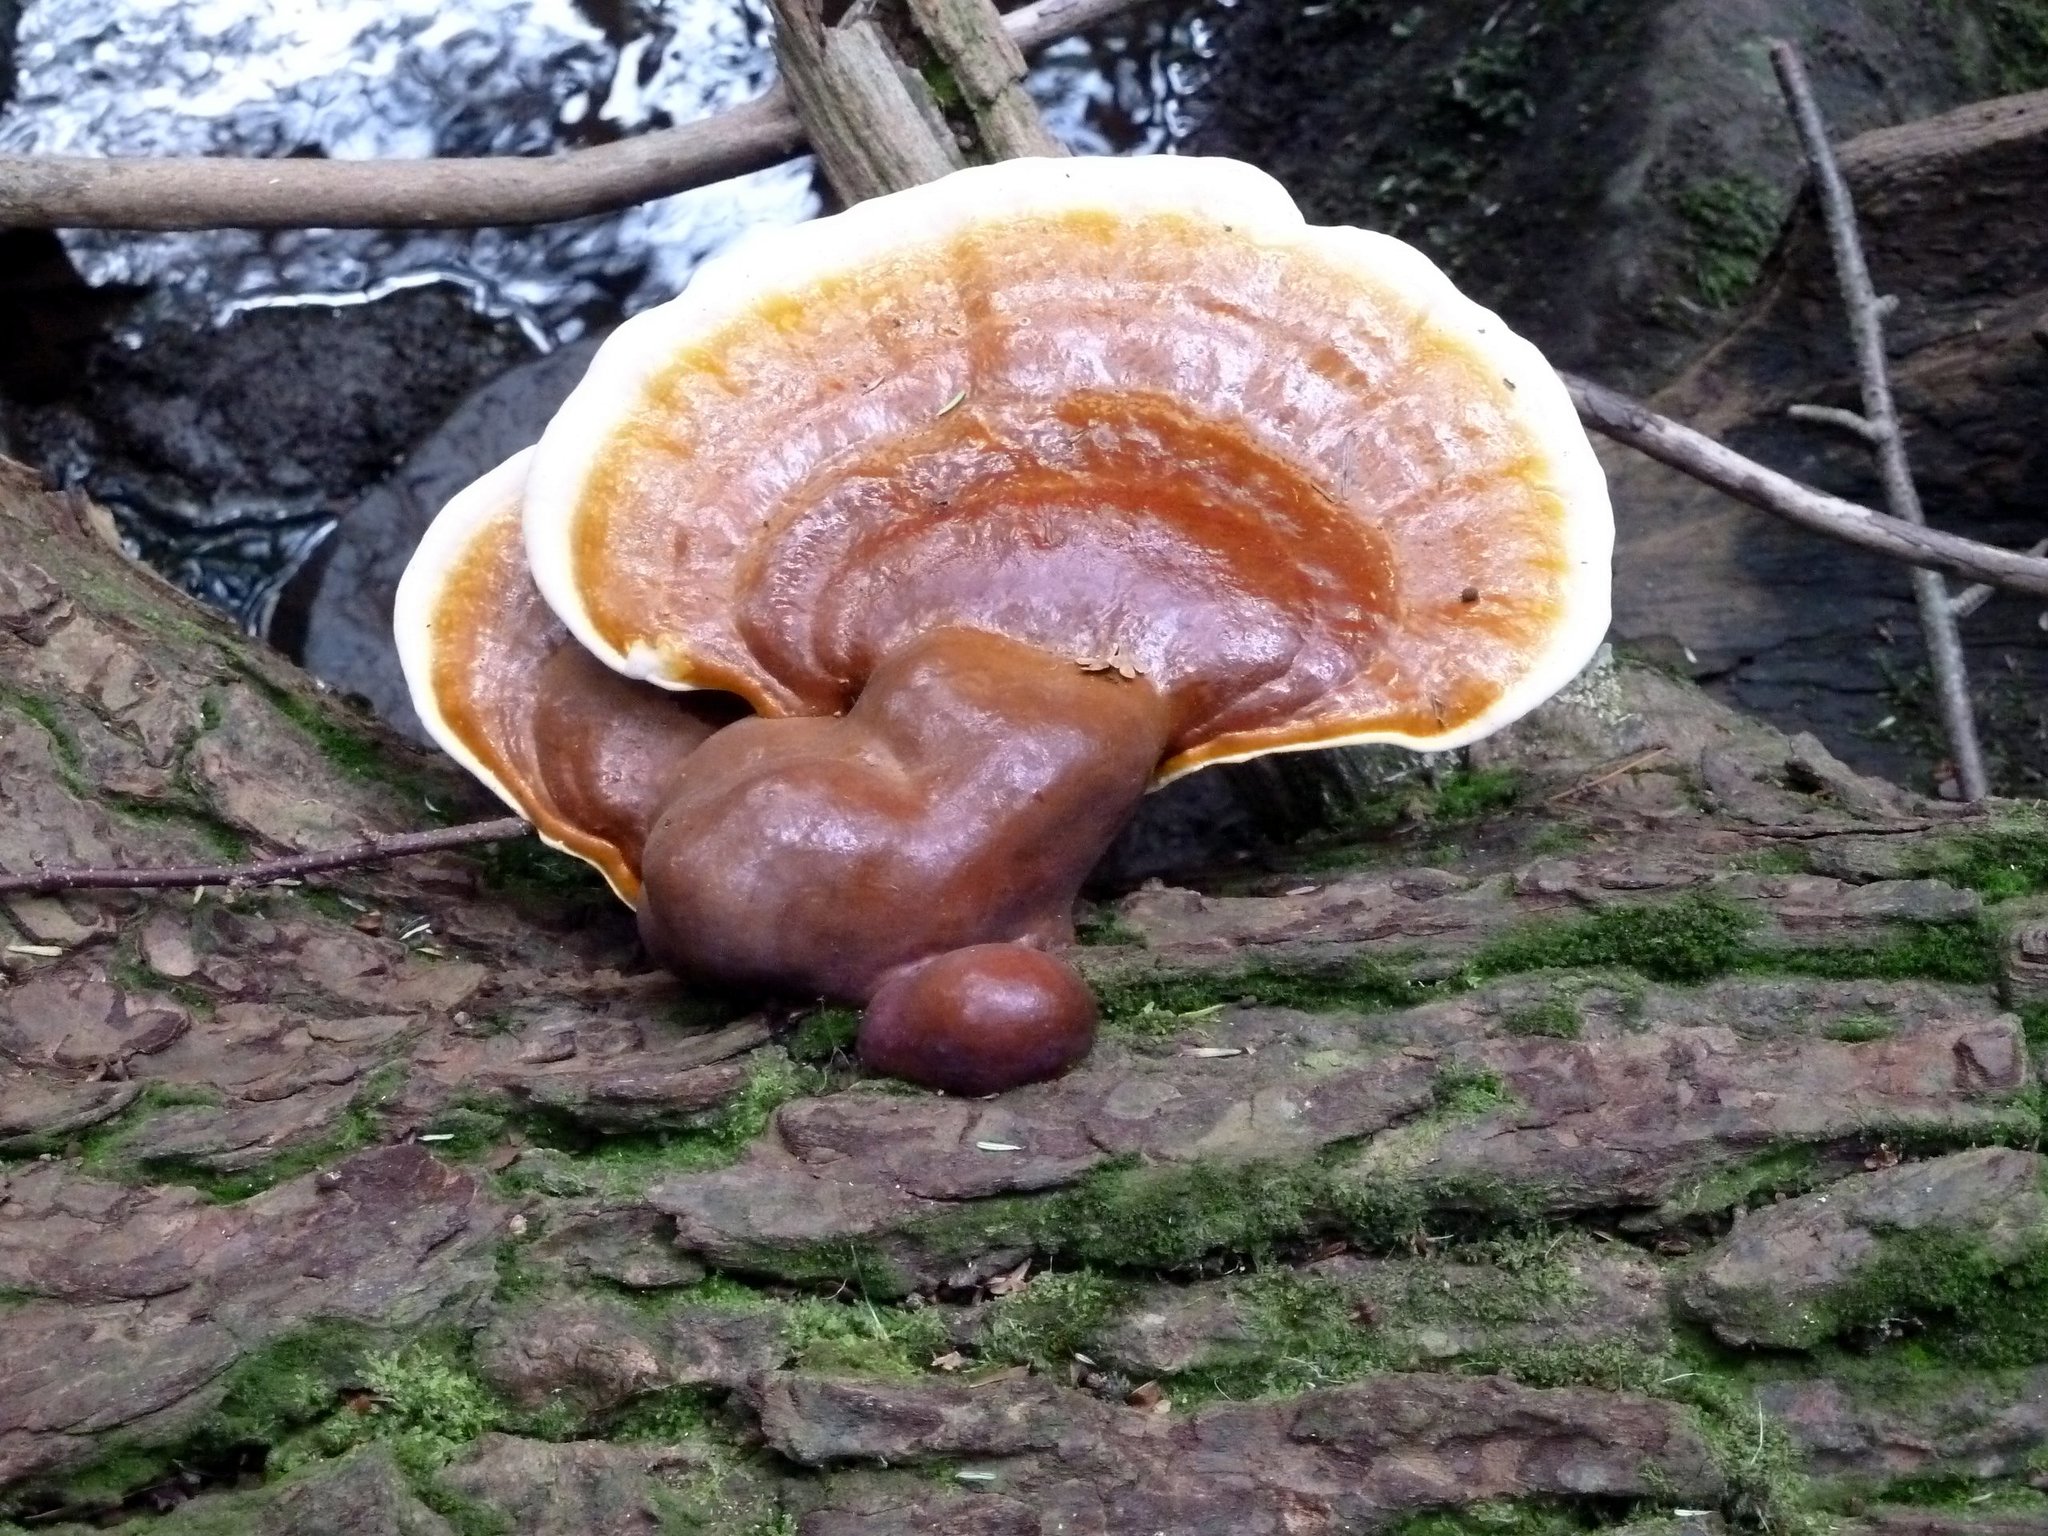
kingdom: Fungi
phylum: Basidiomycota
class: Agaricomycetes
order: Polyporales
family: Polyporaceae
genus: Ganoderma
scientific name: Ganoderma tsugae
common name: Hemlock varnish shelf
